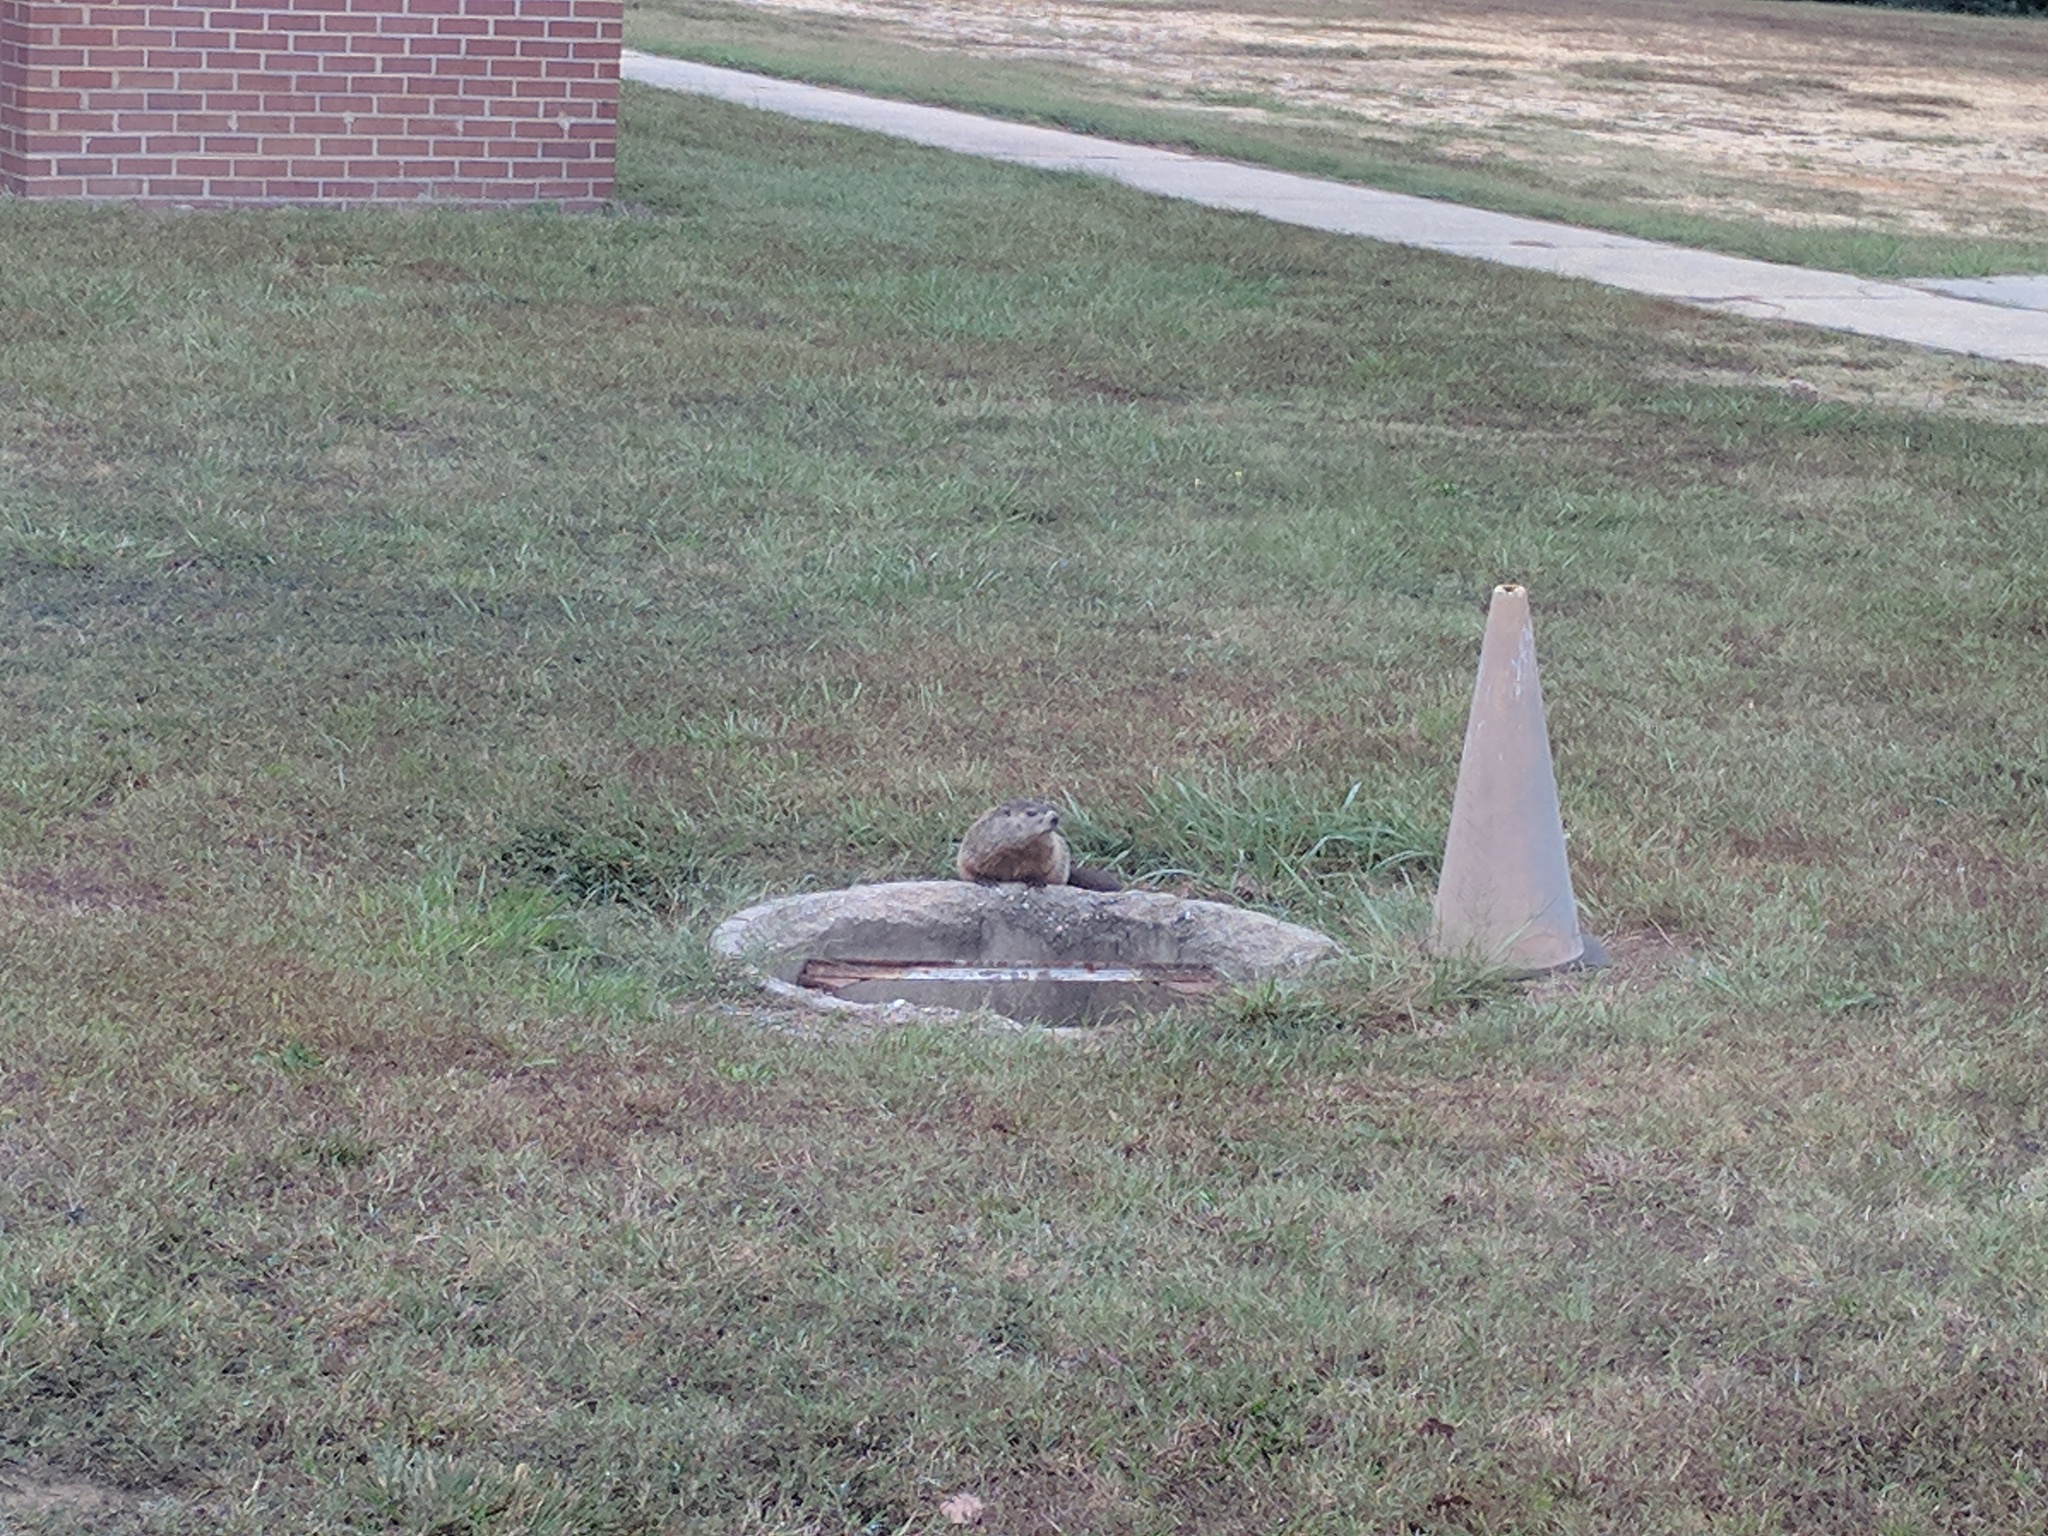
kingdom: Animalia
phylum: Chordata
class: Mammalia
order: Rodentia
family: Sciuridae
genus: Marmota
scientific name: Marmota monax
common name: Groundhog
